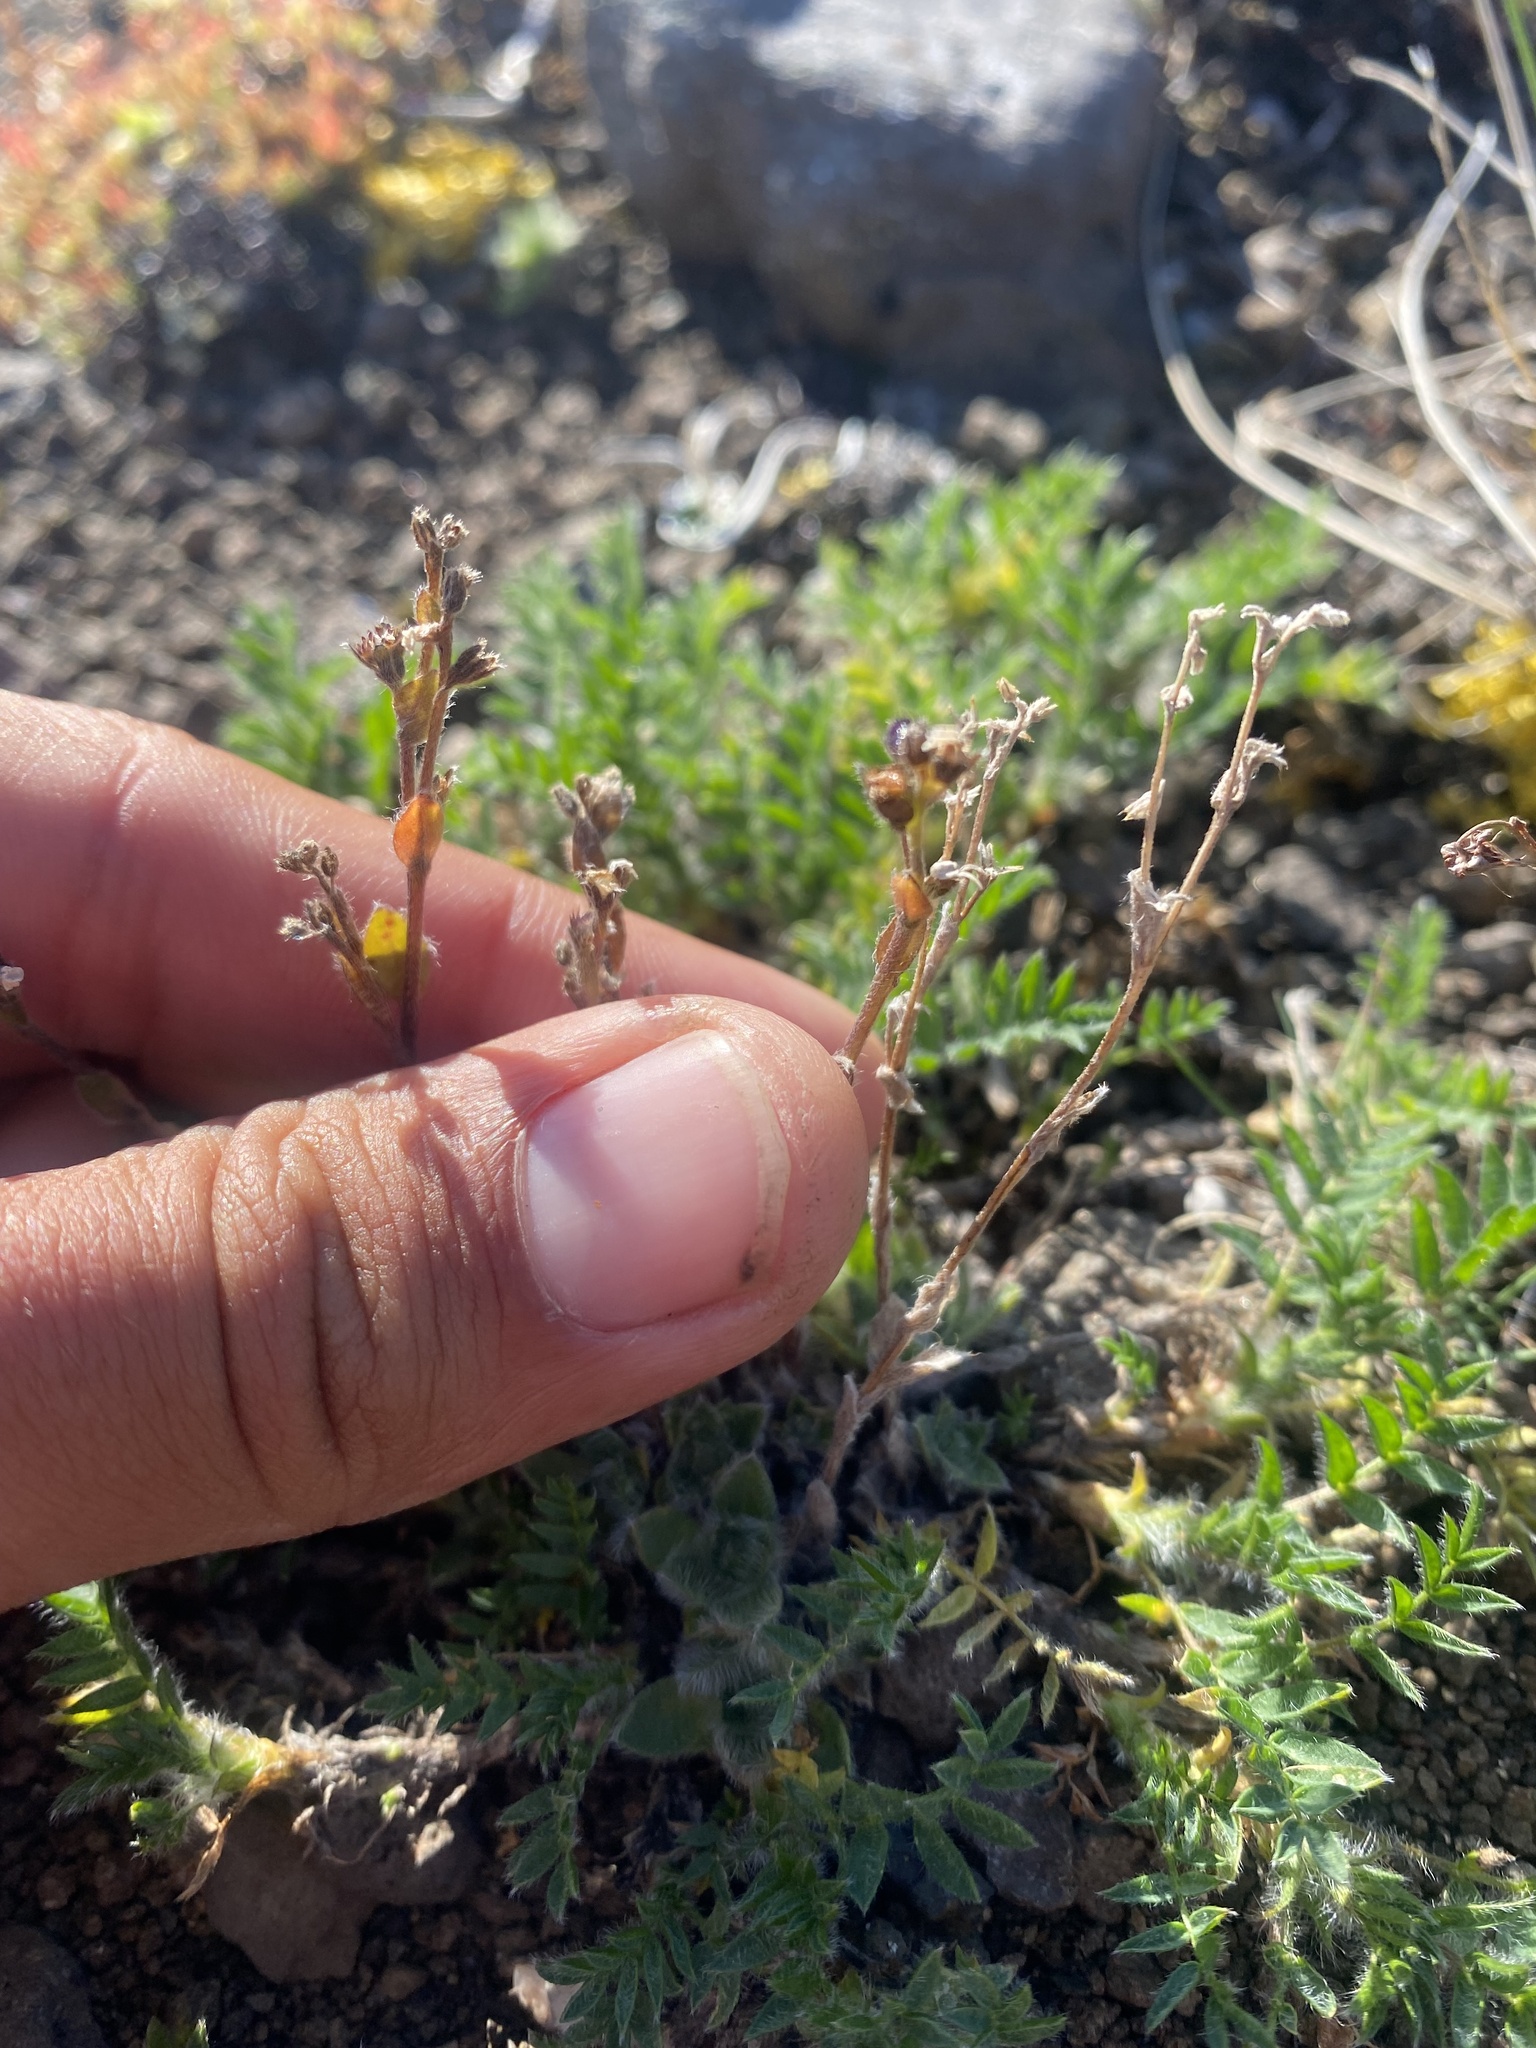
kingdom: Plantae
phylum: Tracheophyta
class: Magnoliopsida
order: Boraginales
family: Boraginaceae
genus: Eritrichium
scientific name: Eritrichium villosum
